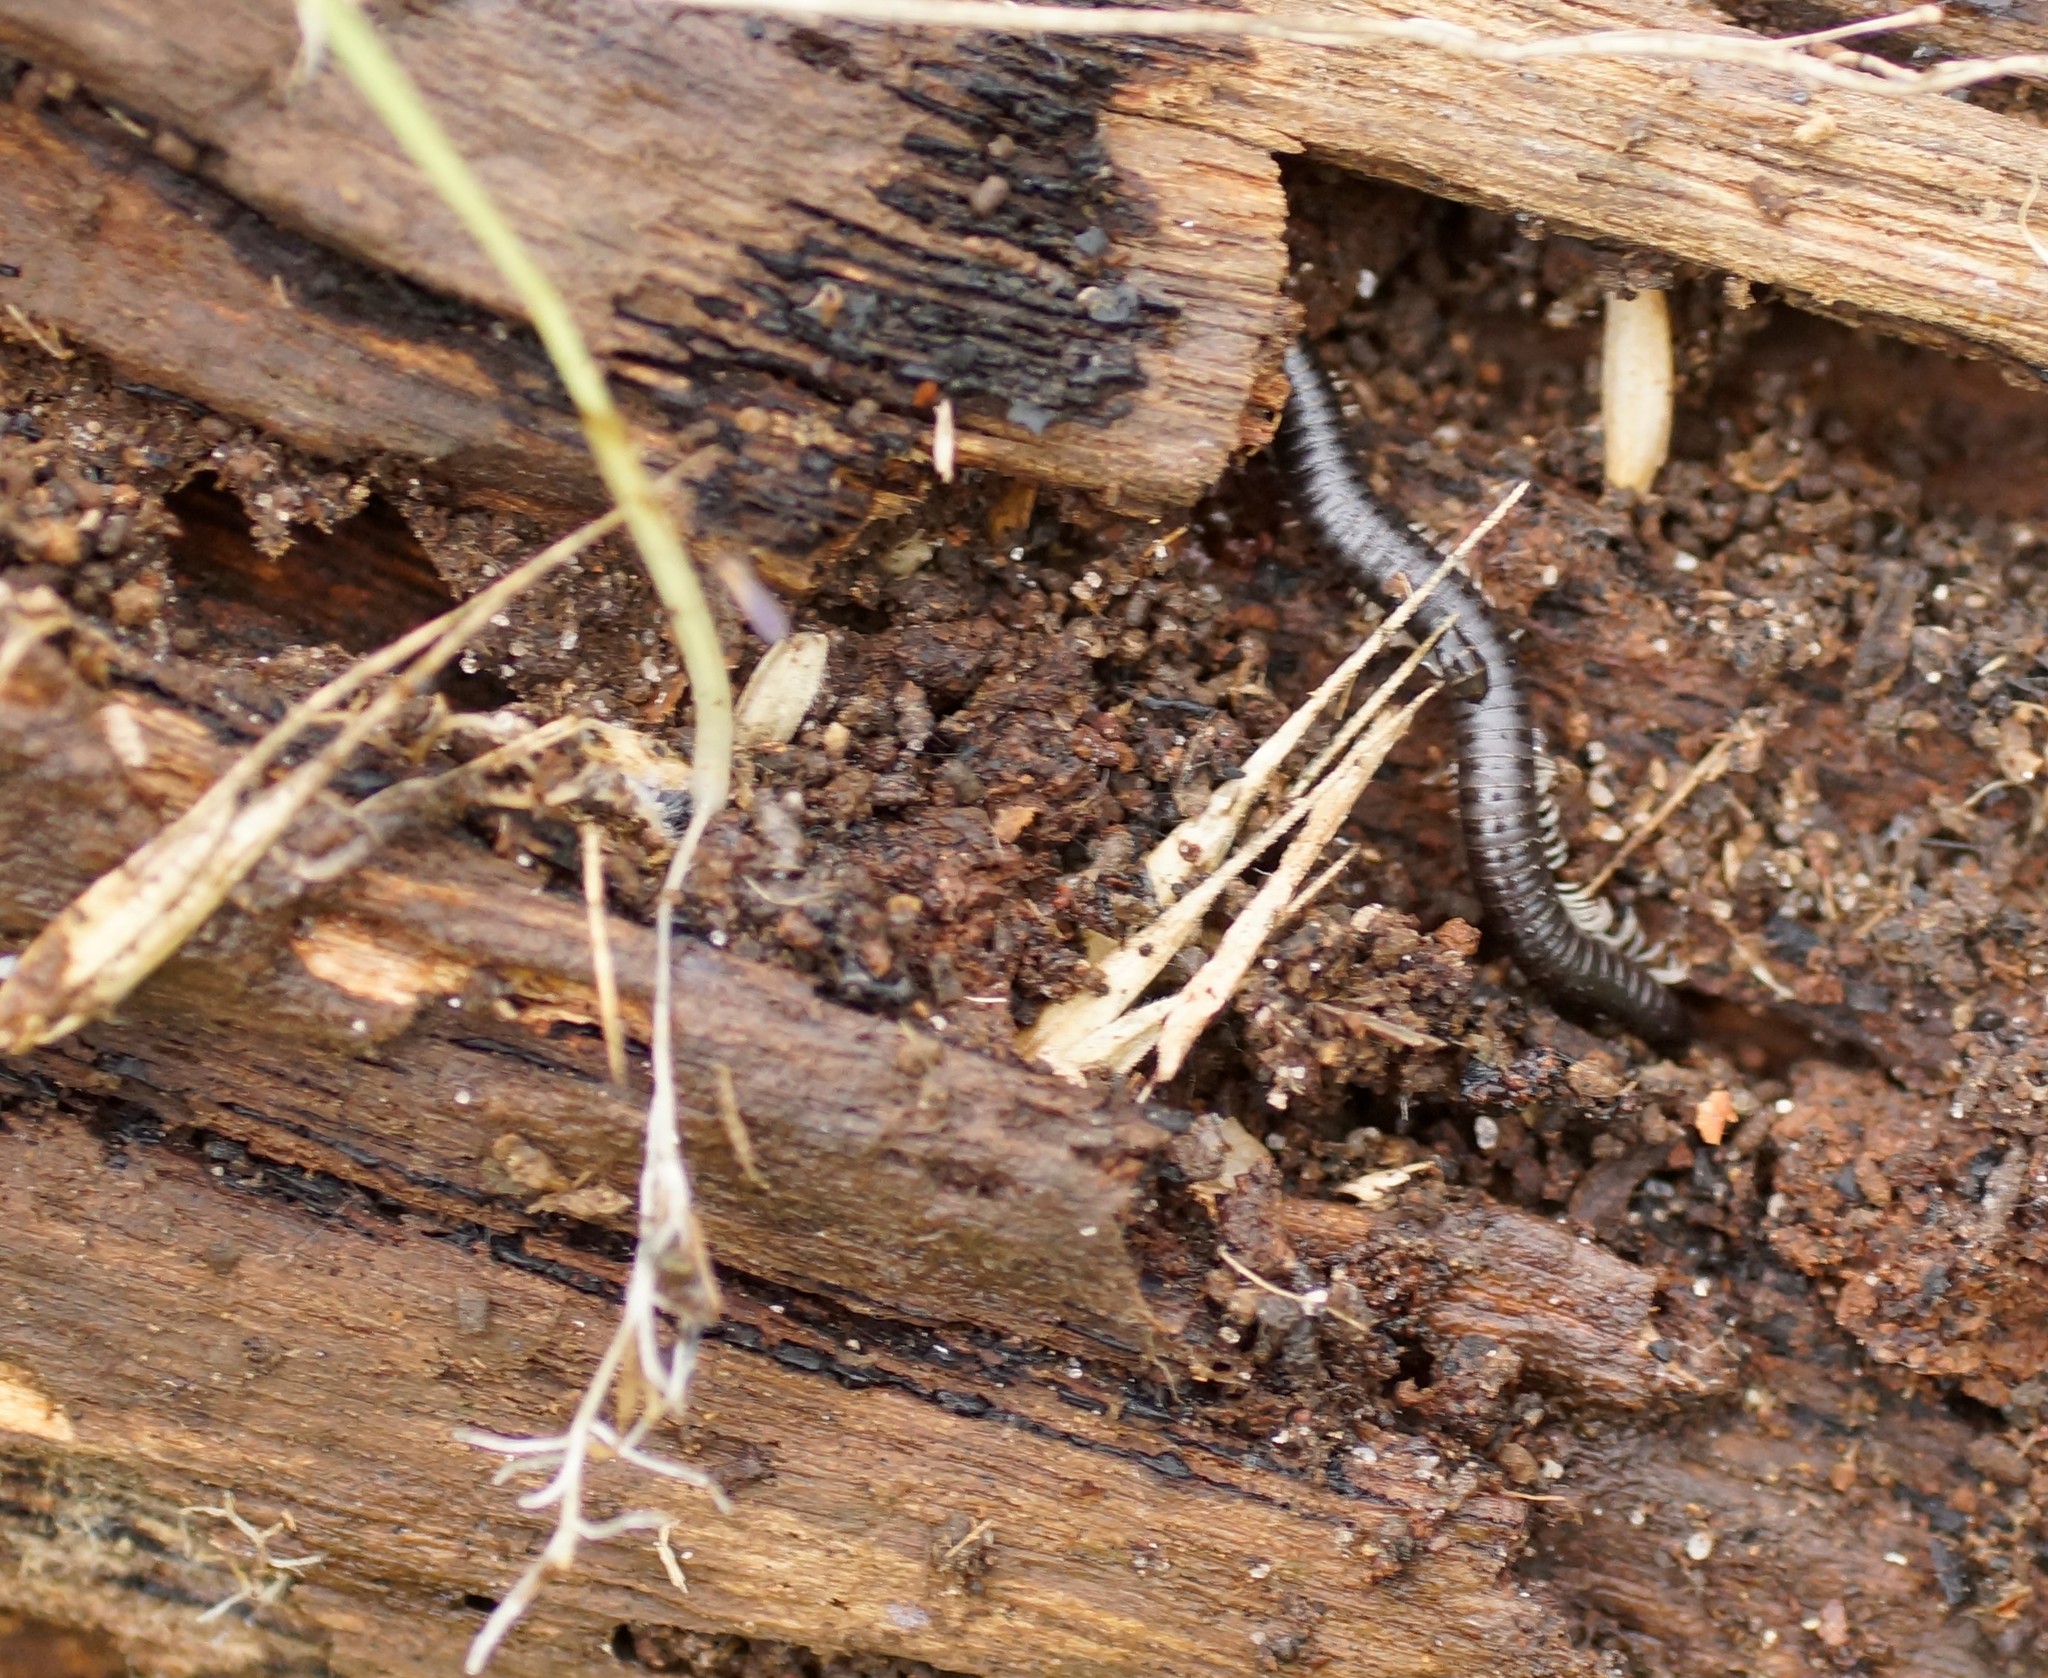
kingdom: Animalia
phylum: Arthropoda
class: Diplopoda
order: Julida
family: Julidae
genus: Ommatoiulus
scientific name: Ommatoiulus moreleti
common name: Portuguese millipede
